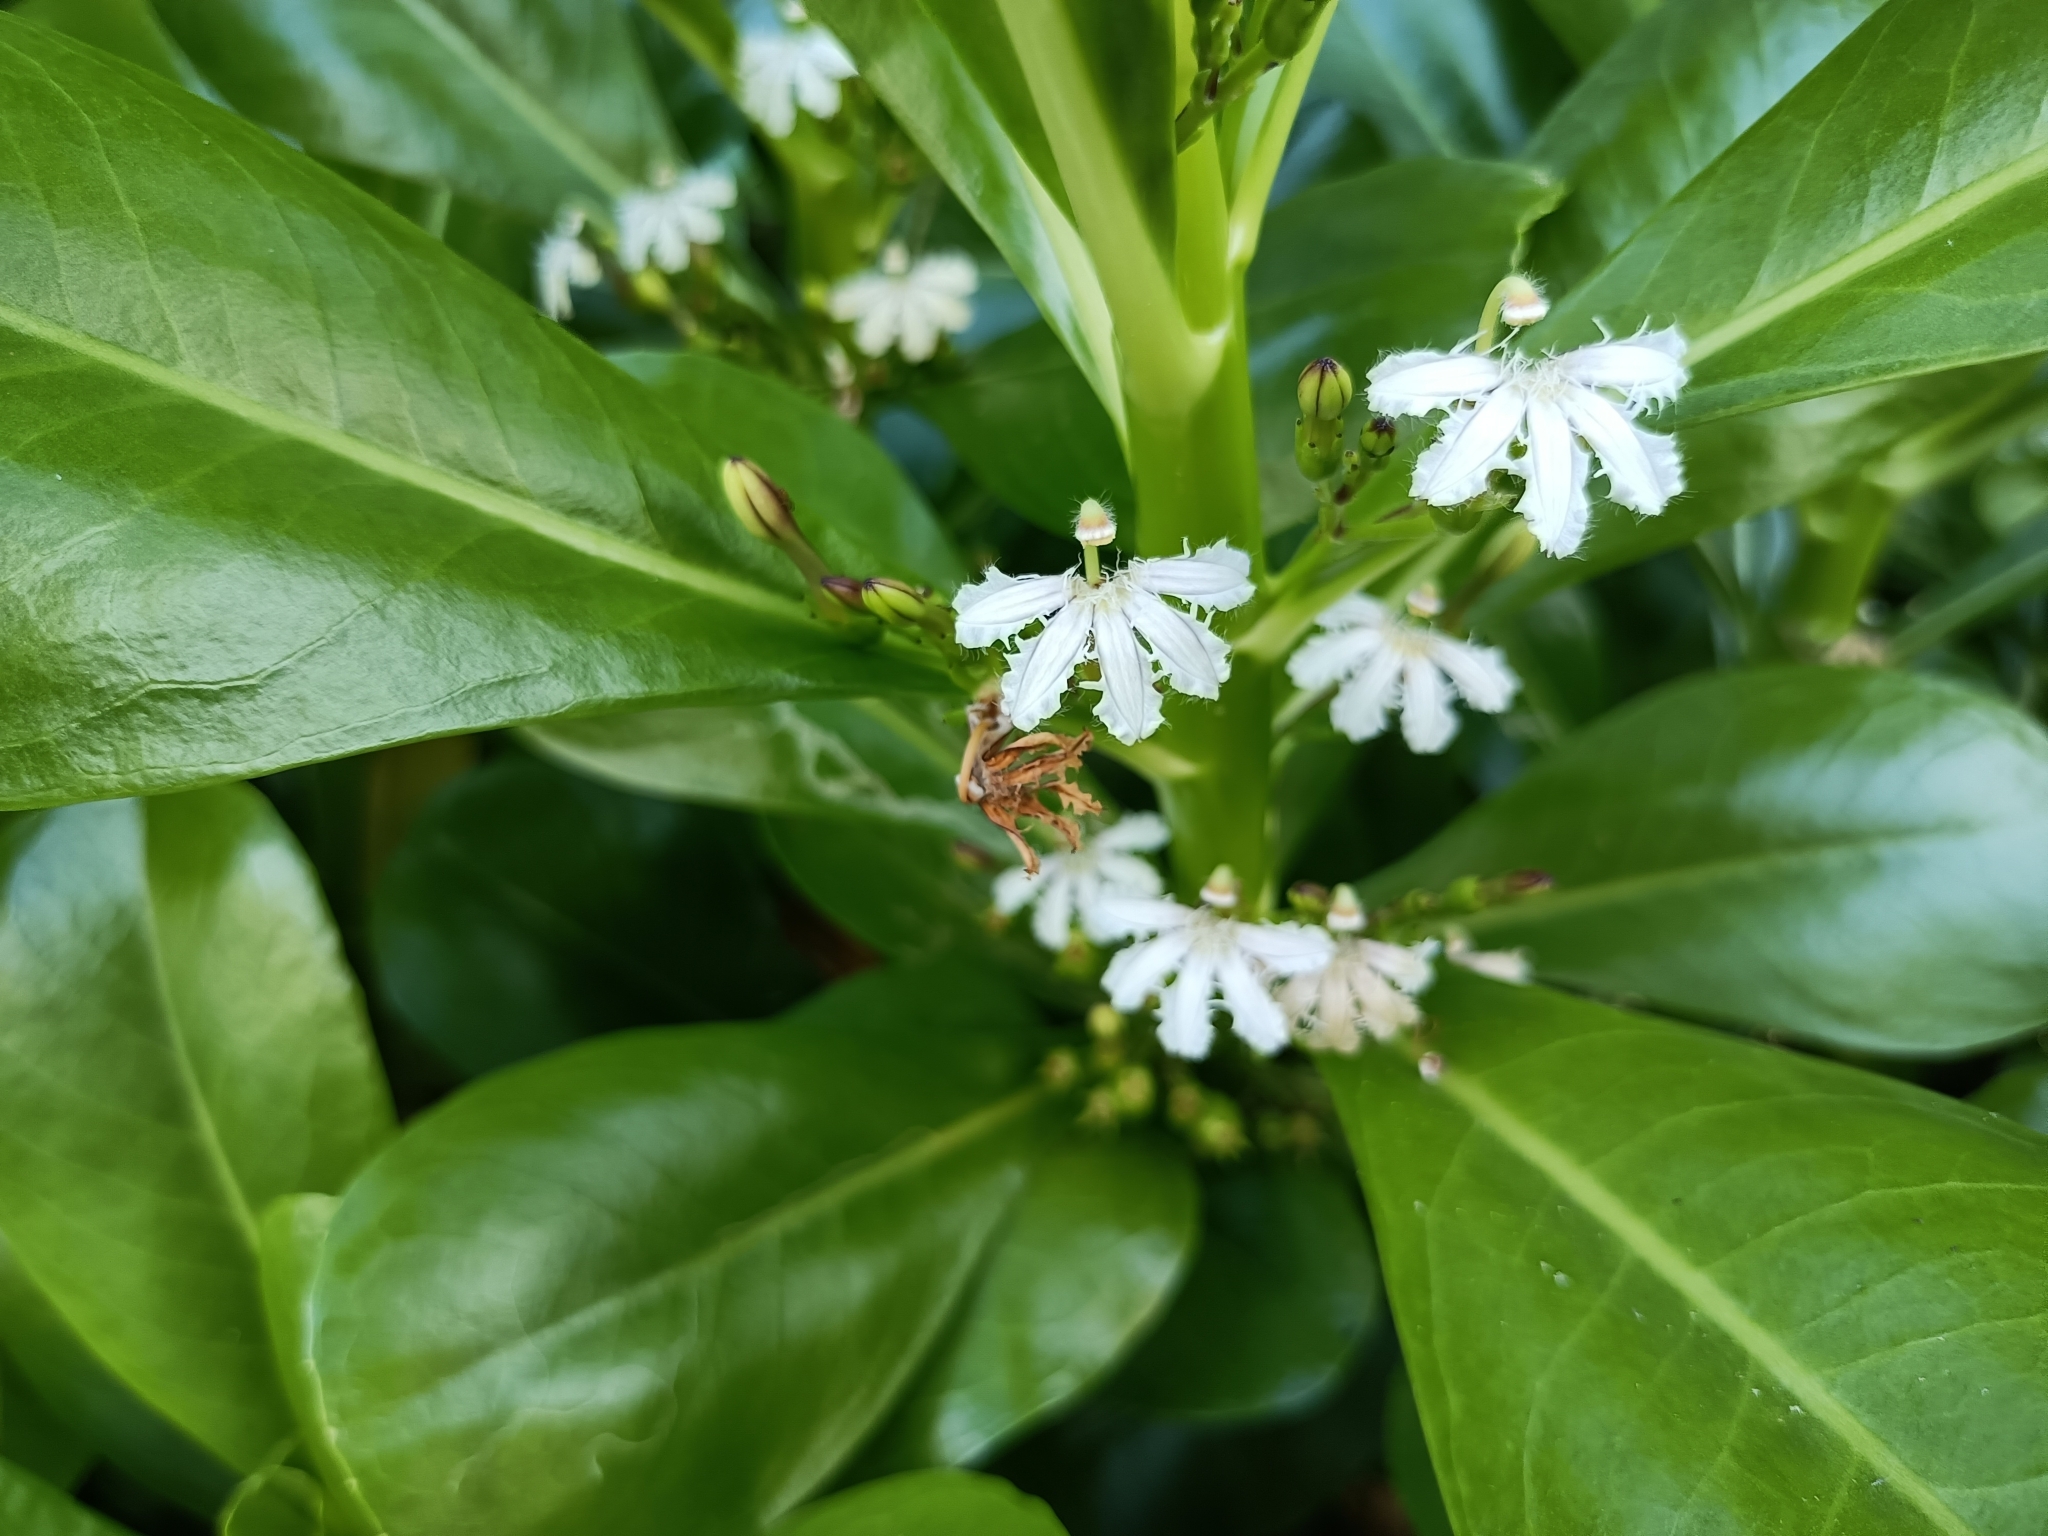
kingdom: Plantae
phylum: Tracheophyta
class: Magnoliopsida
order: Asterales
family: Goodeniaceae
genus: Scaevola
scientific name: Scaevola taccada
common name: Sea lettucetree
